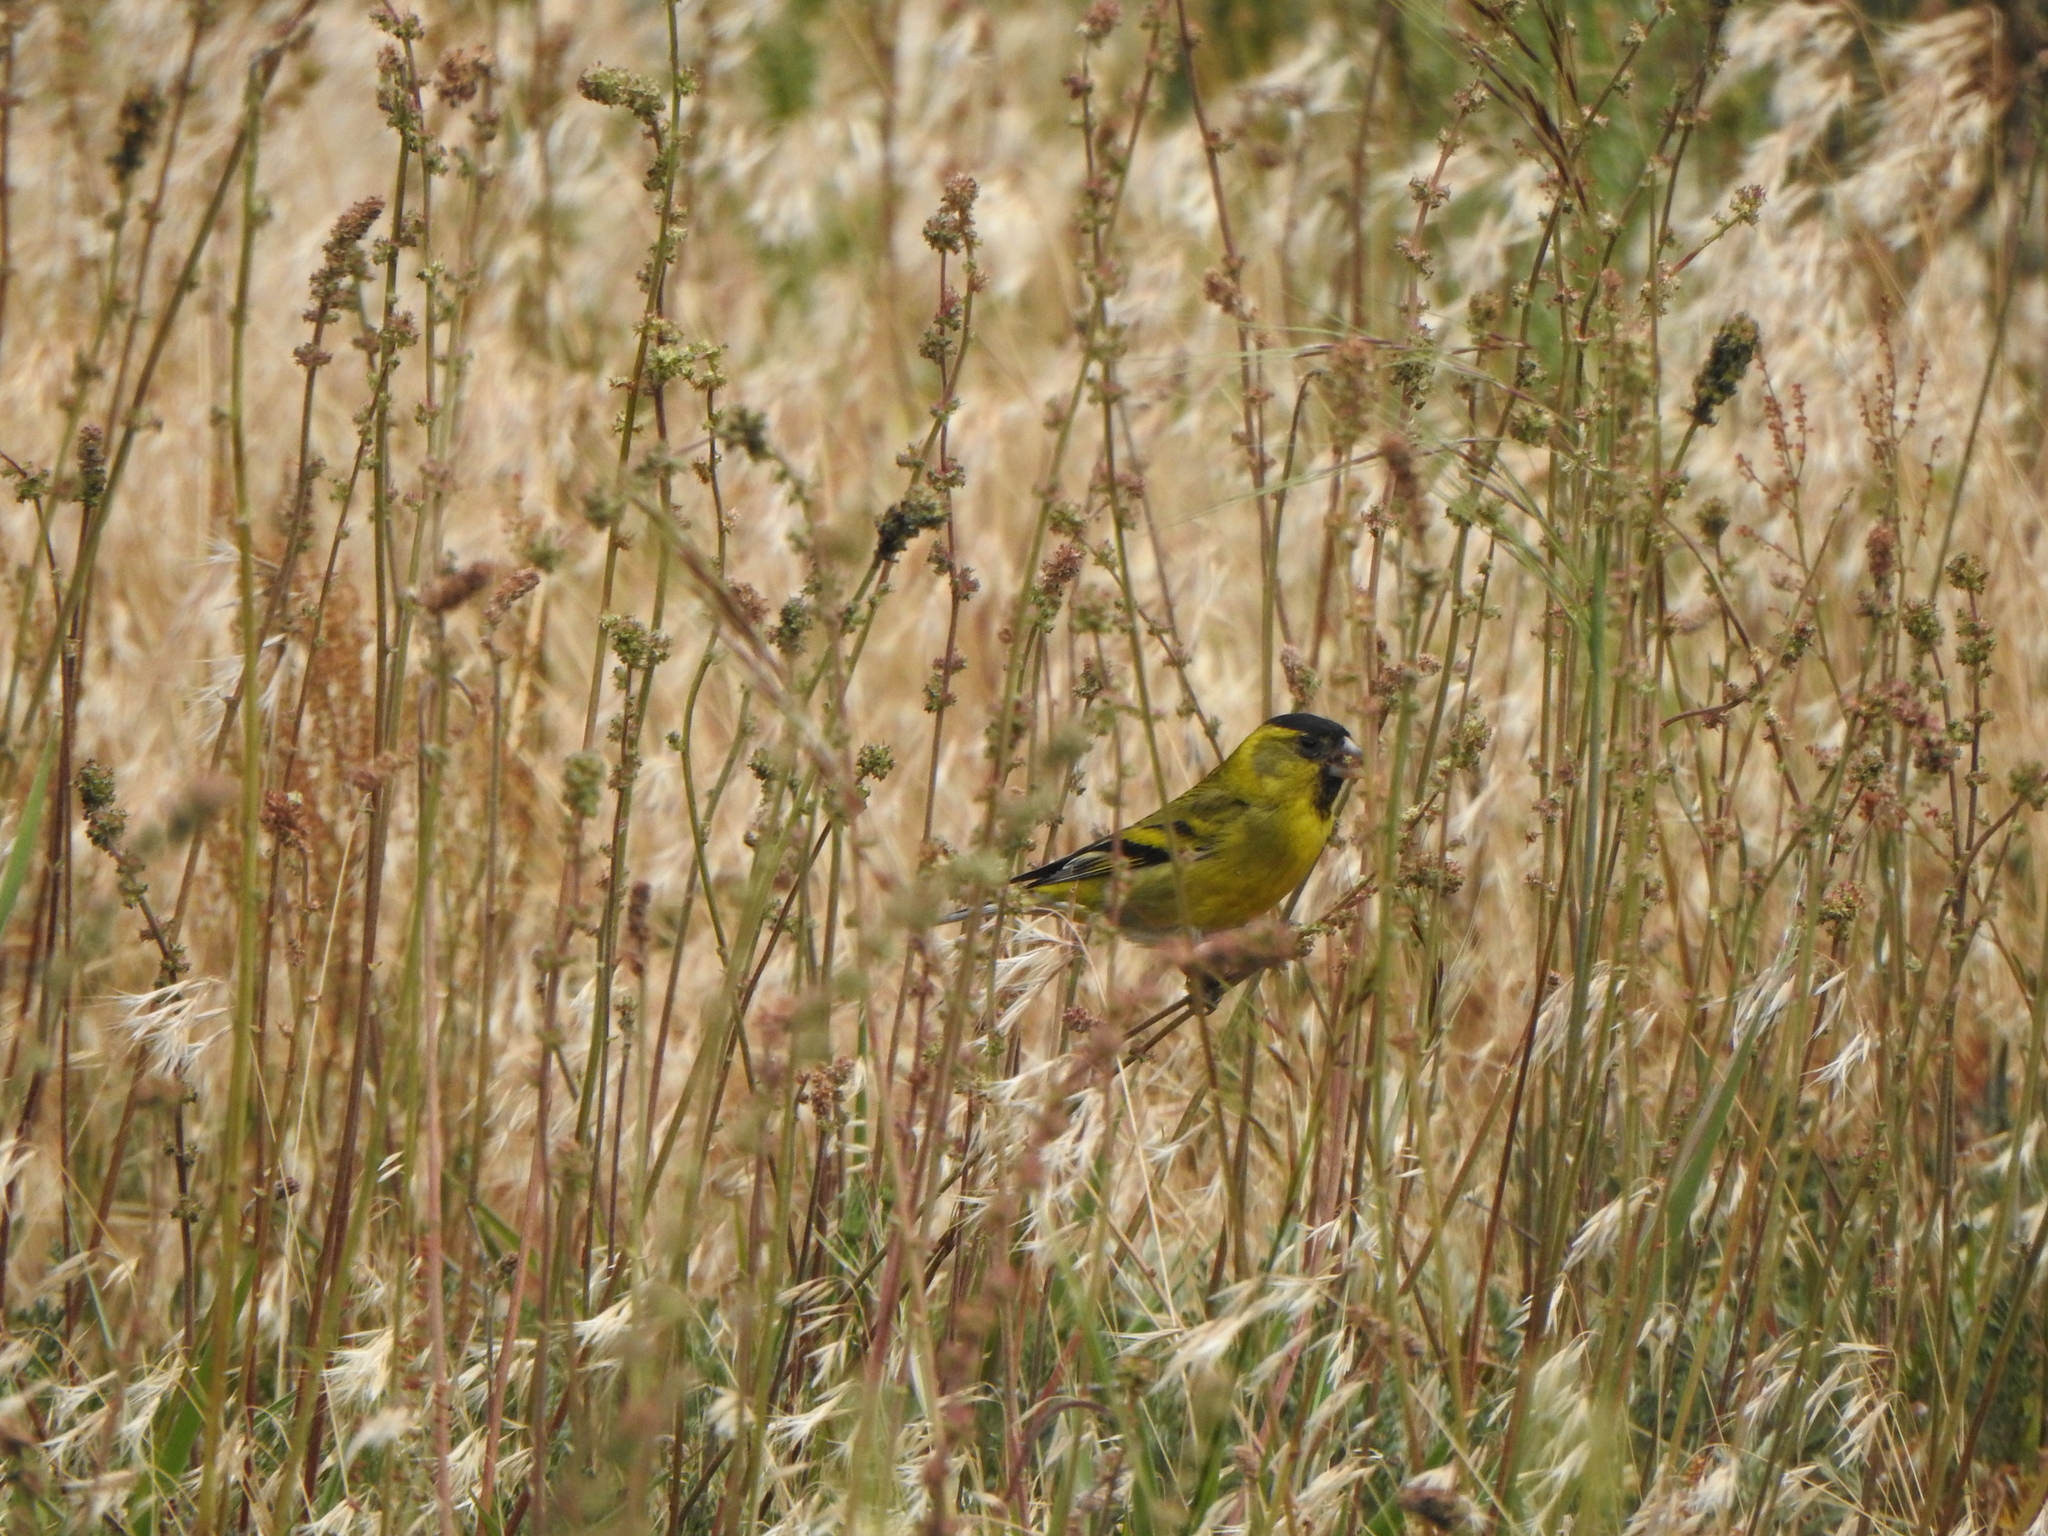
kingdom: Animalia
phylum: Chordata
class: Aves
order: Passeriformes
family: Fringillidae
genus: Spinus
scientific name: Spinus barbatus
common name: Black-chinned siskin
